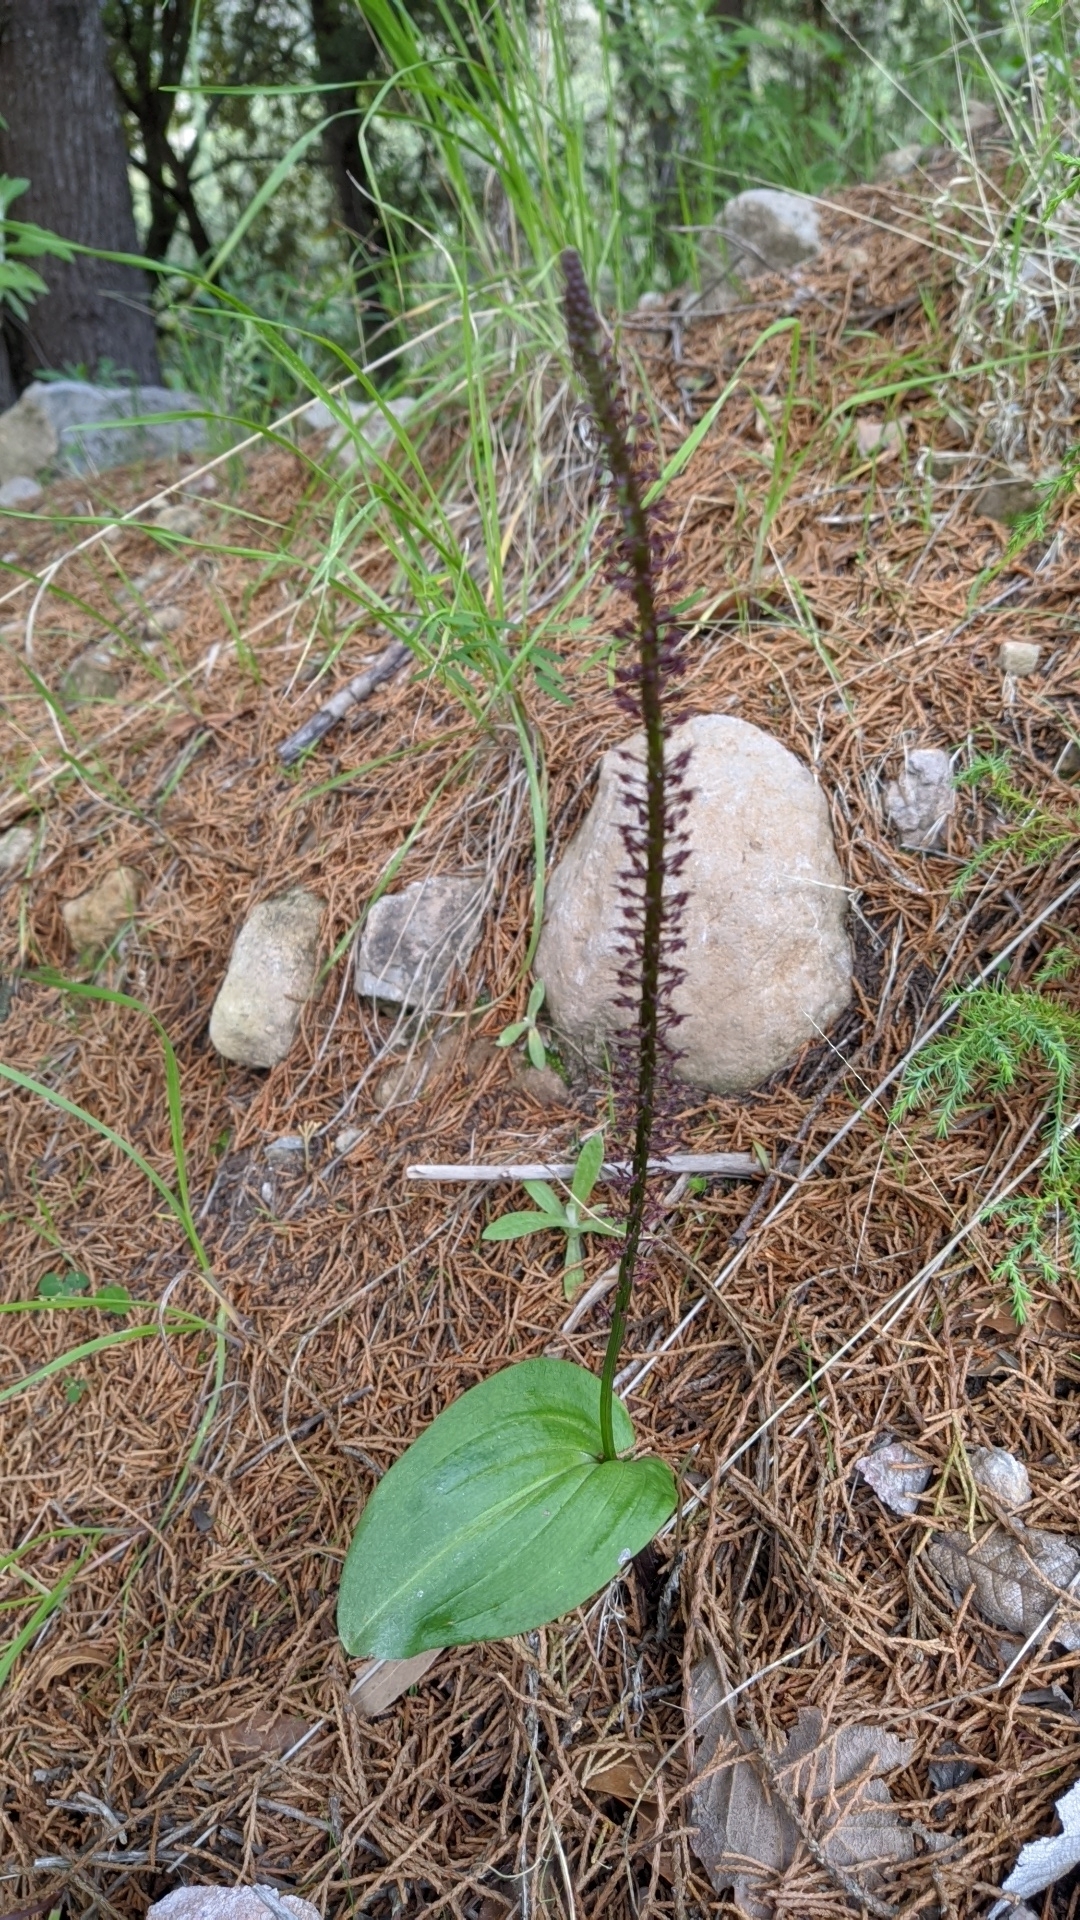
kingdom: Plantae
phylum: Tracheophyta
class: Liliopsida
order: Asparagales
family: Orchidaceae
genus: Tamayorkis
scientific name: Tamayorkis ehrenbergii
